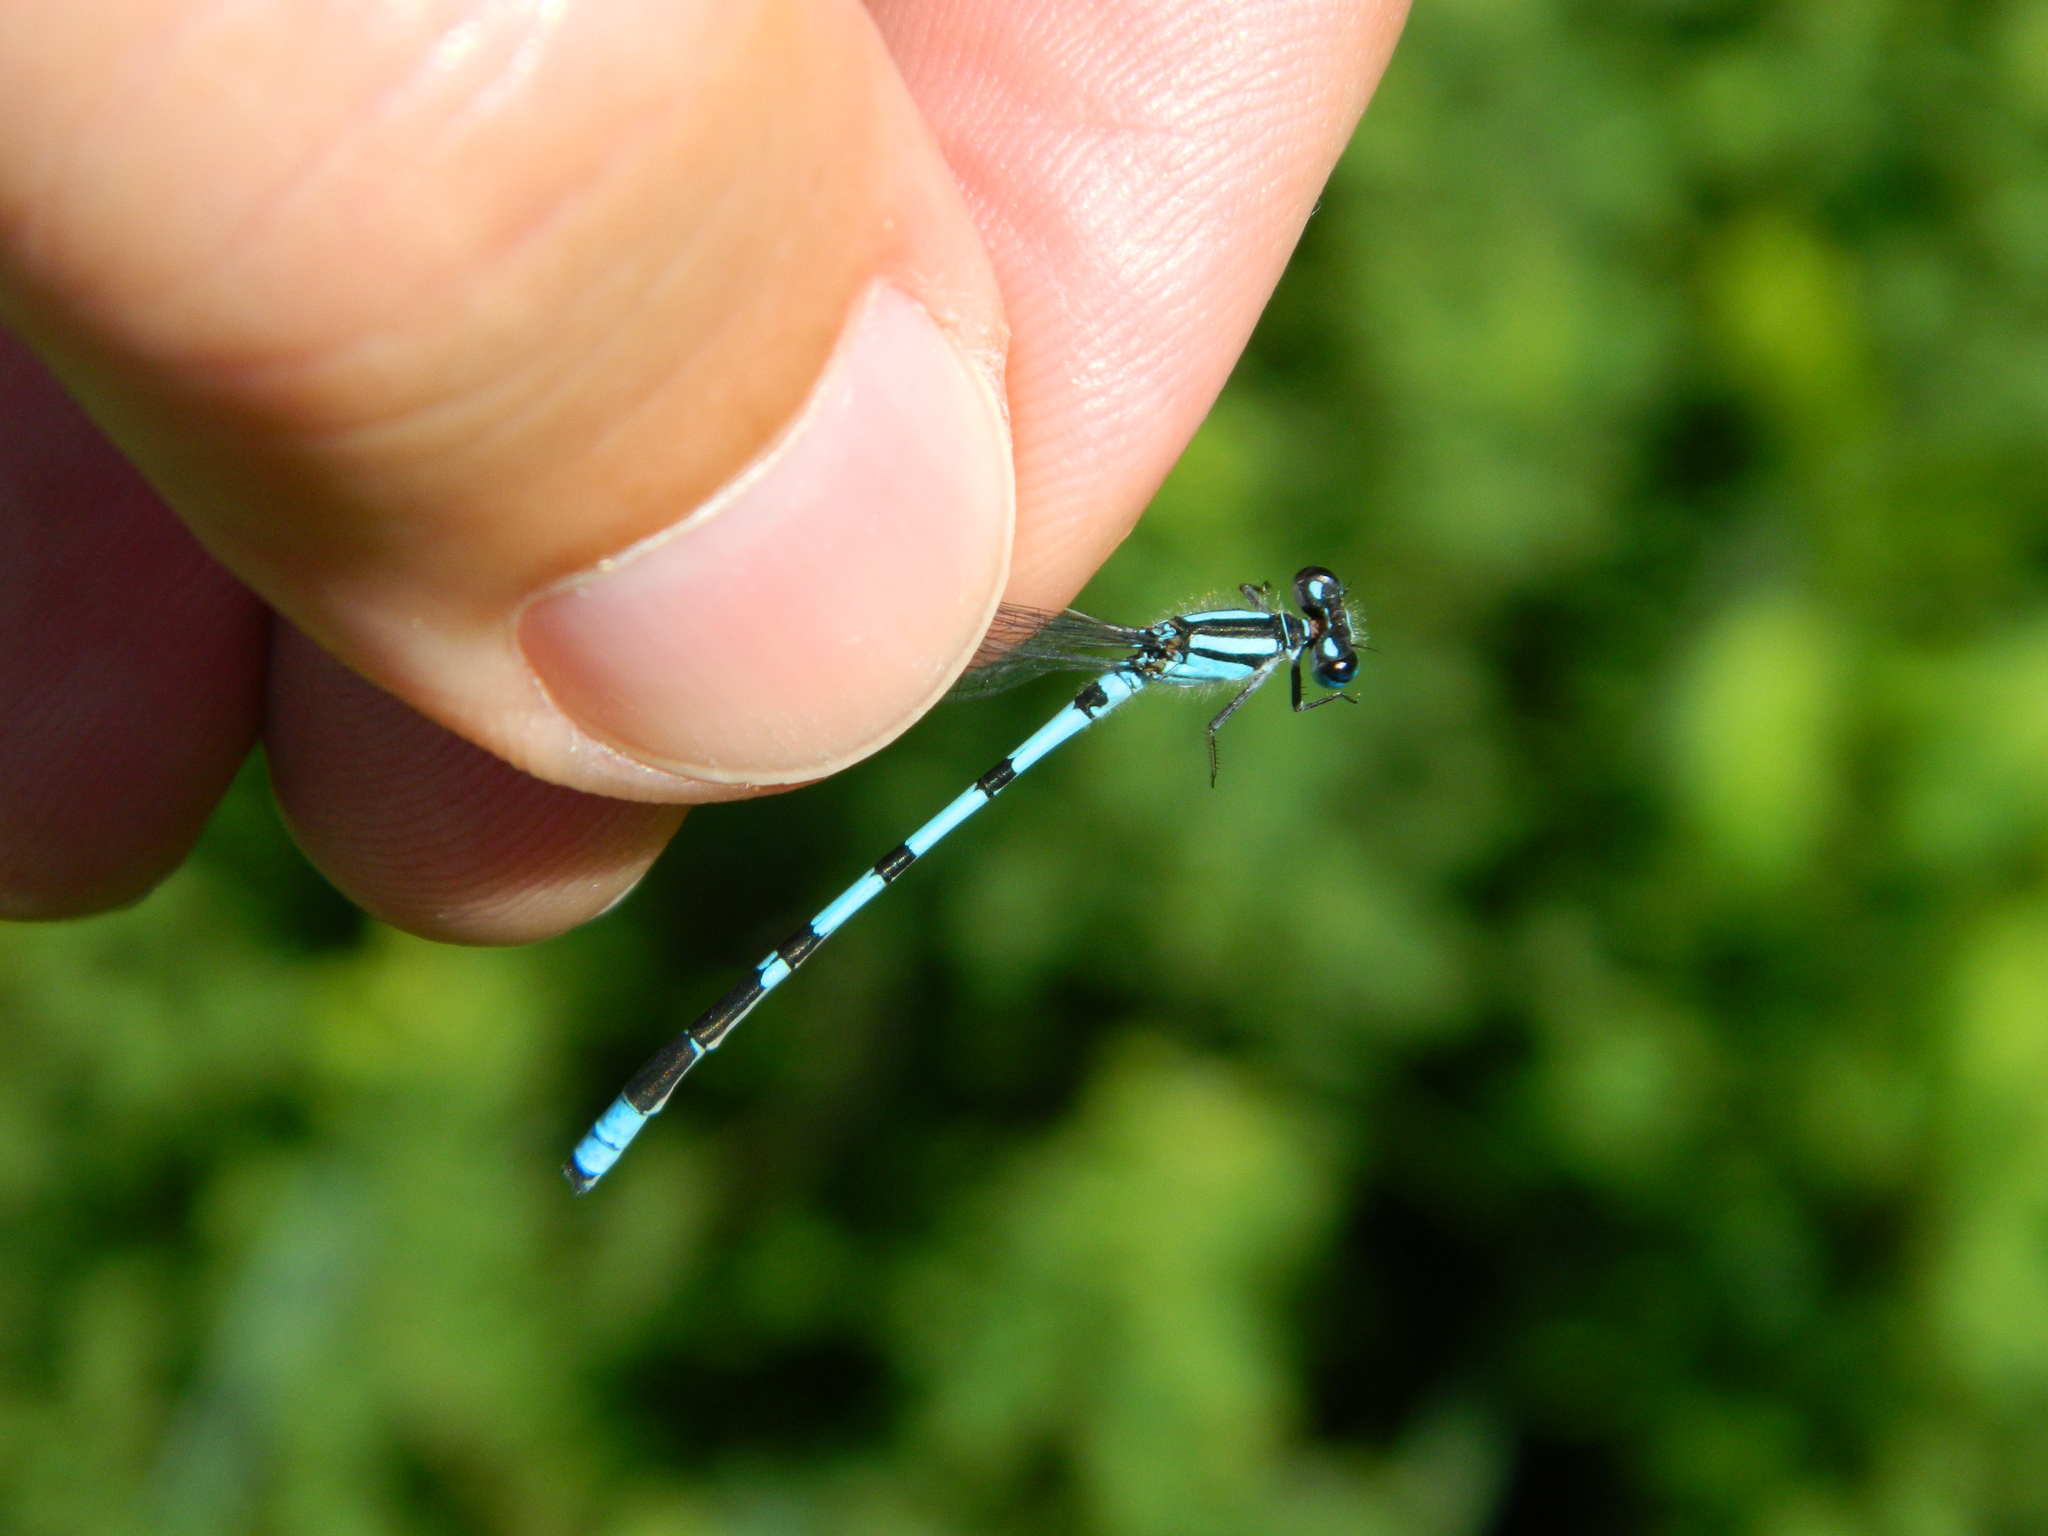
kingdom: Animalia
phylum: Arthropoda
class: Insecta
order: Odonata
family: Coenagrionidae
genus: Enallagma
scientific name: Enallagma ebrium
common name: Marsh bluet
